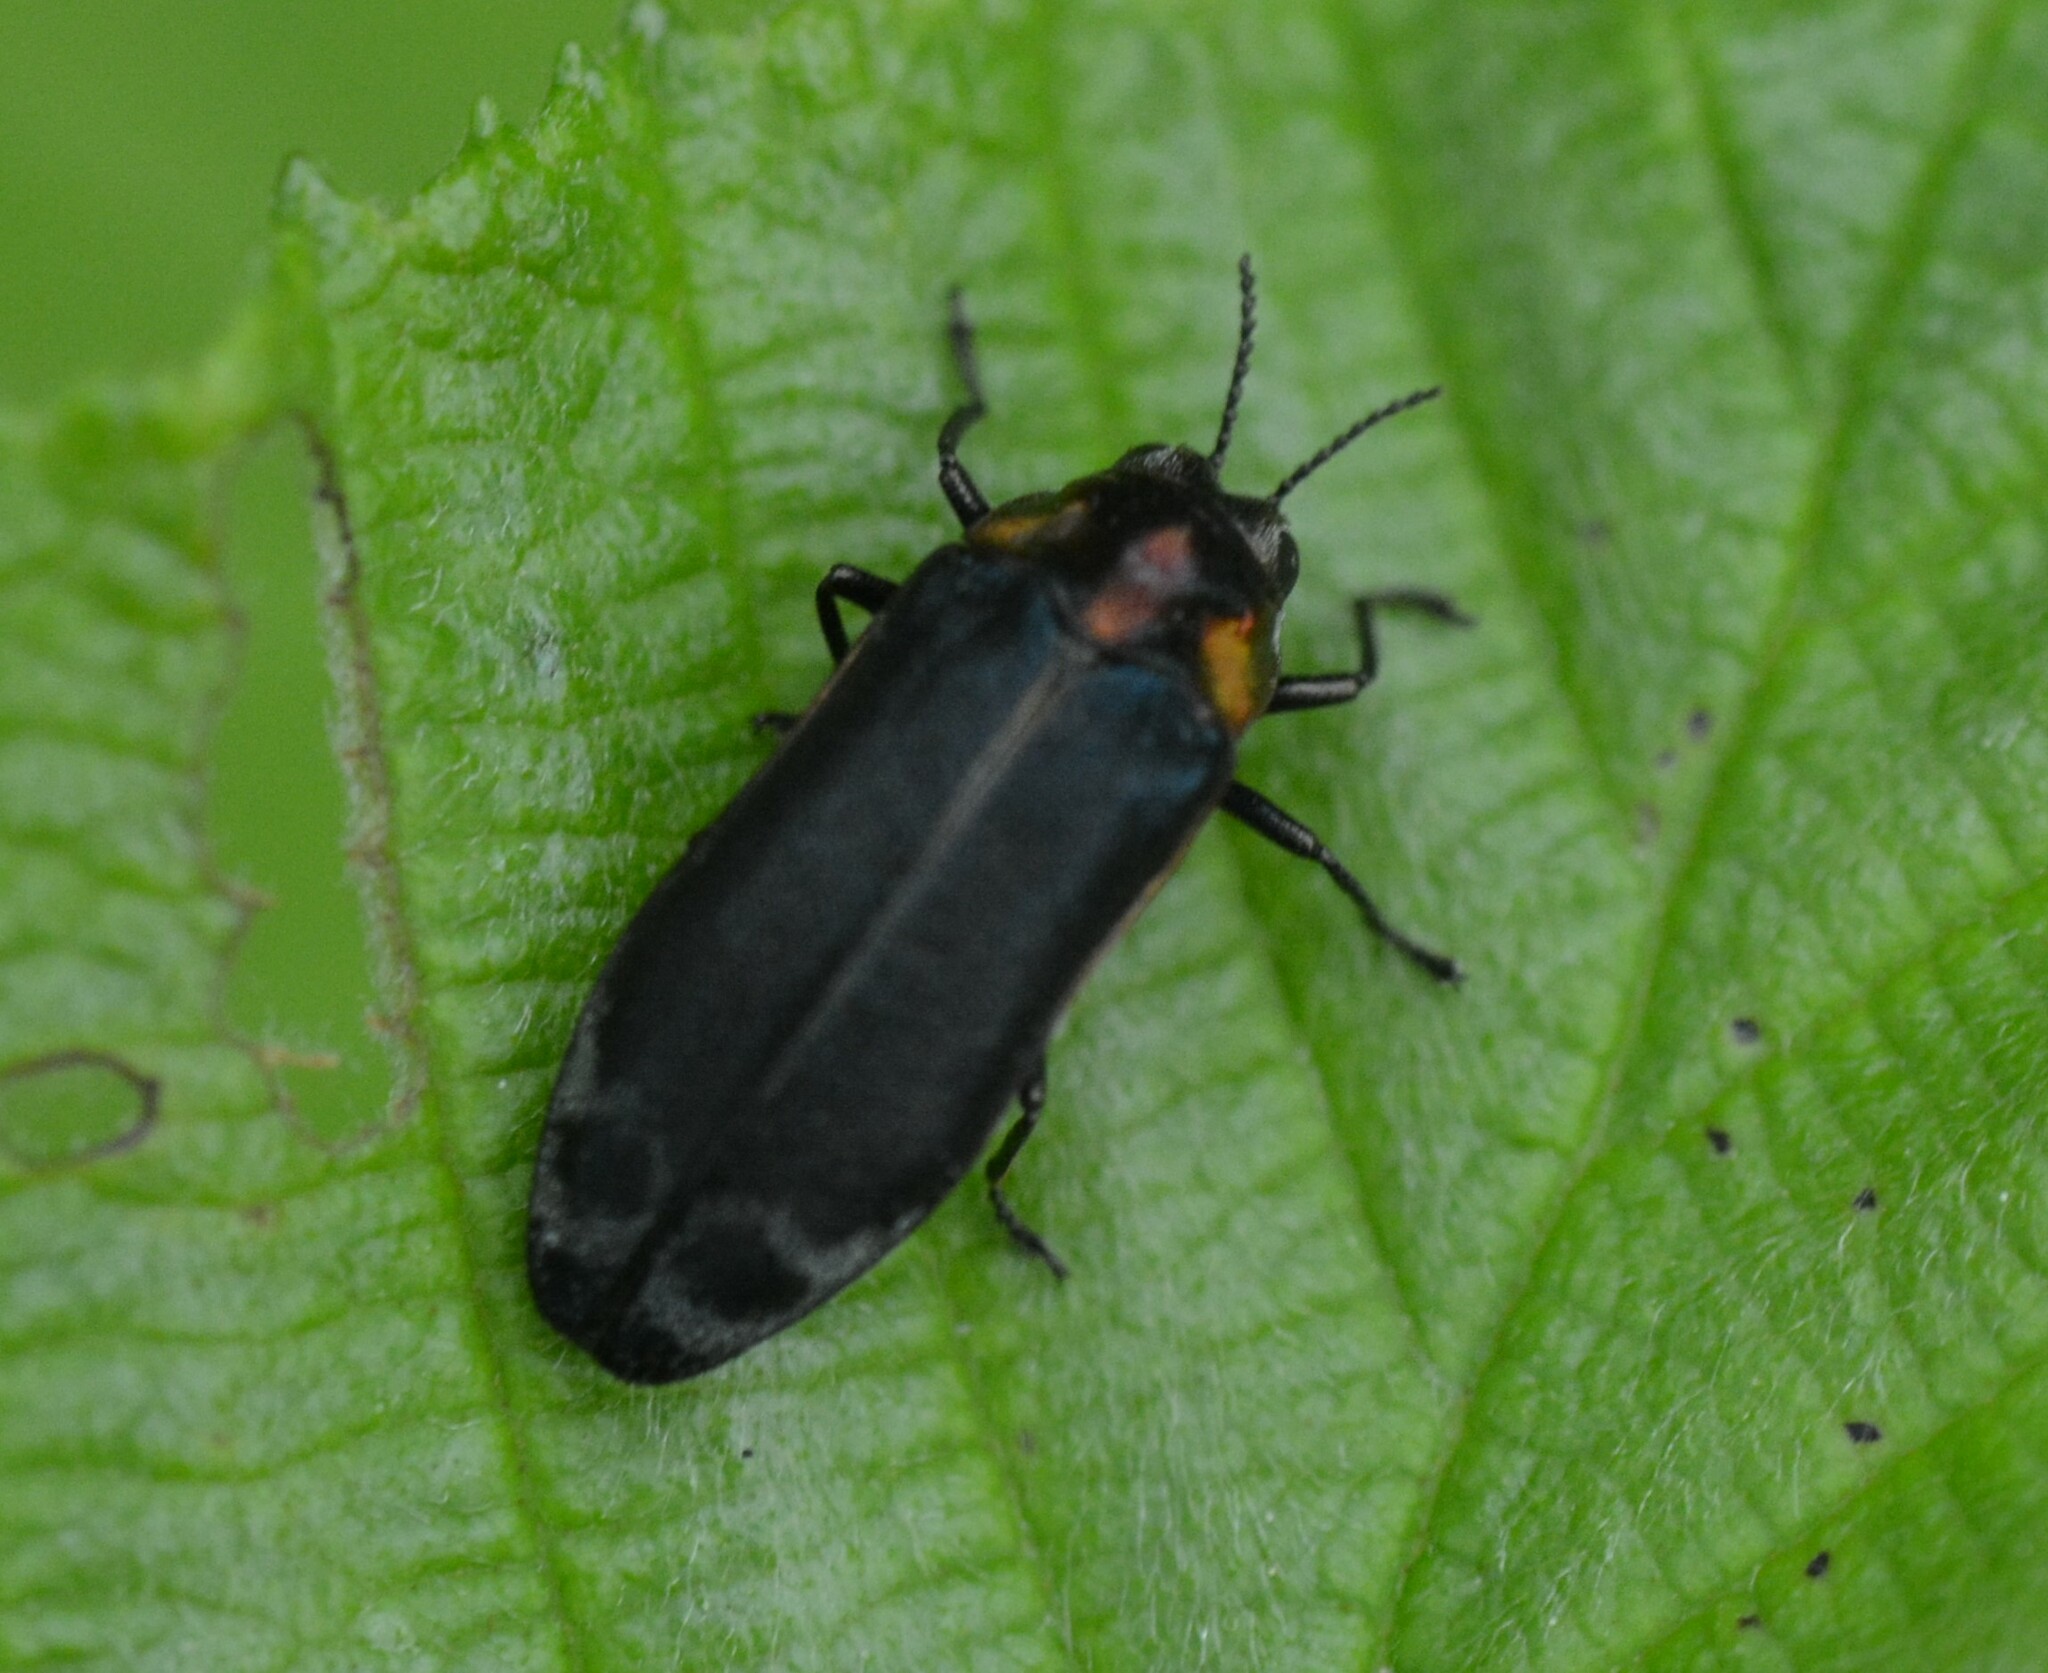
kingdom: Animalia
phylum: Arthropoda
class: Insecta
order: Coleoptera
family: Buprestidae
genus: Eupristocerus
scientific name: Eupristocerus cogitans
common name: Alder gall buprestid
